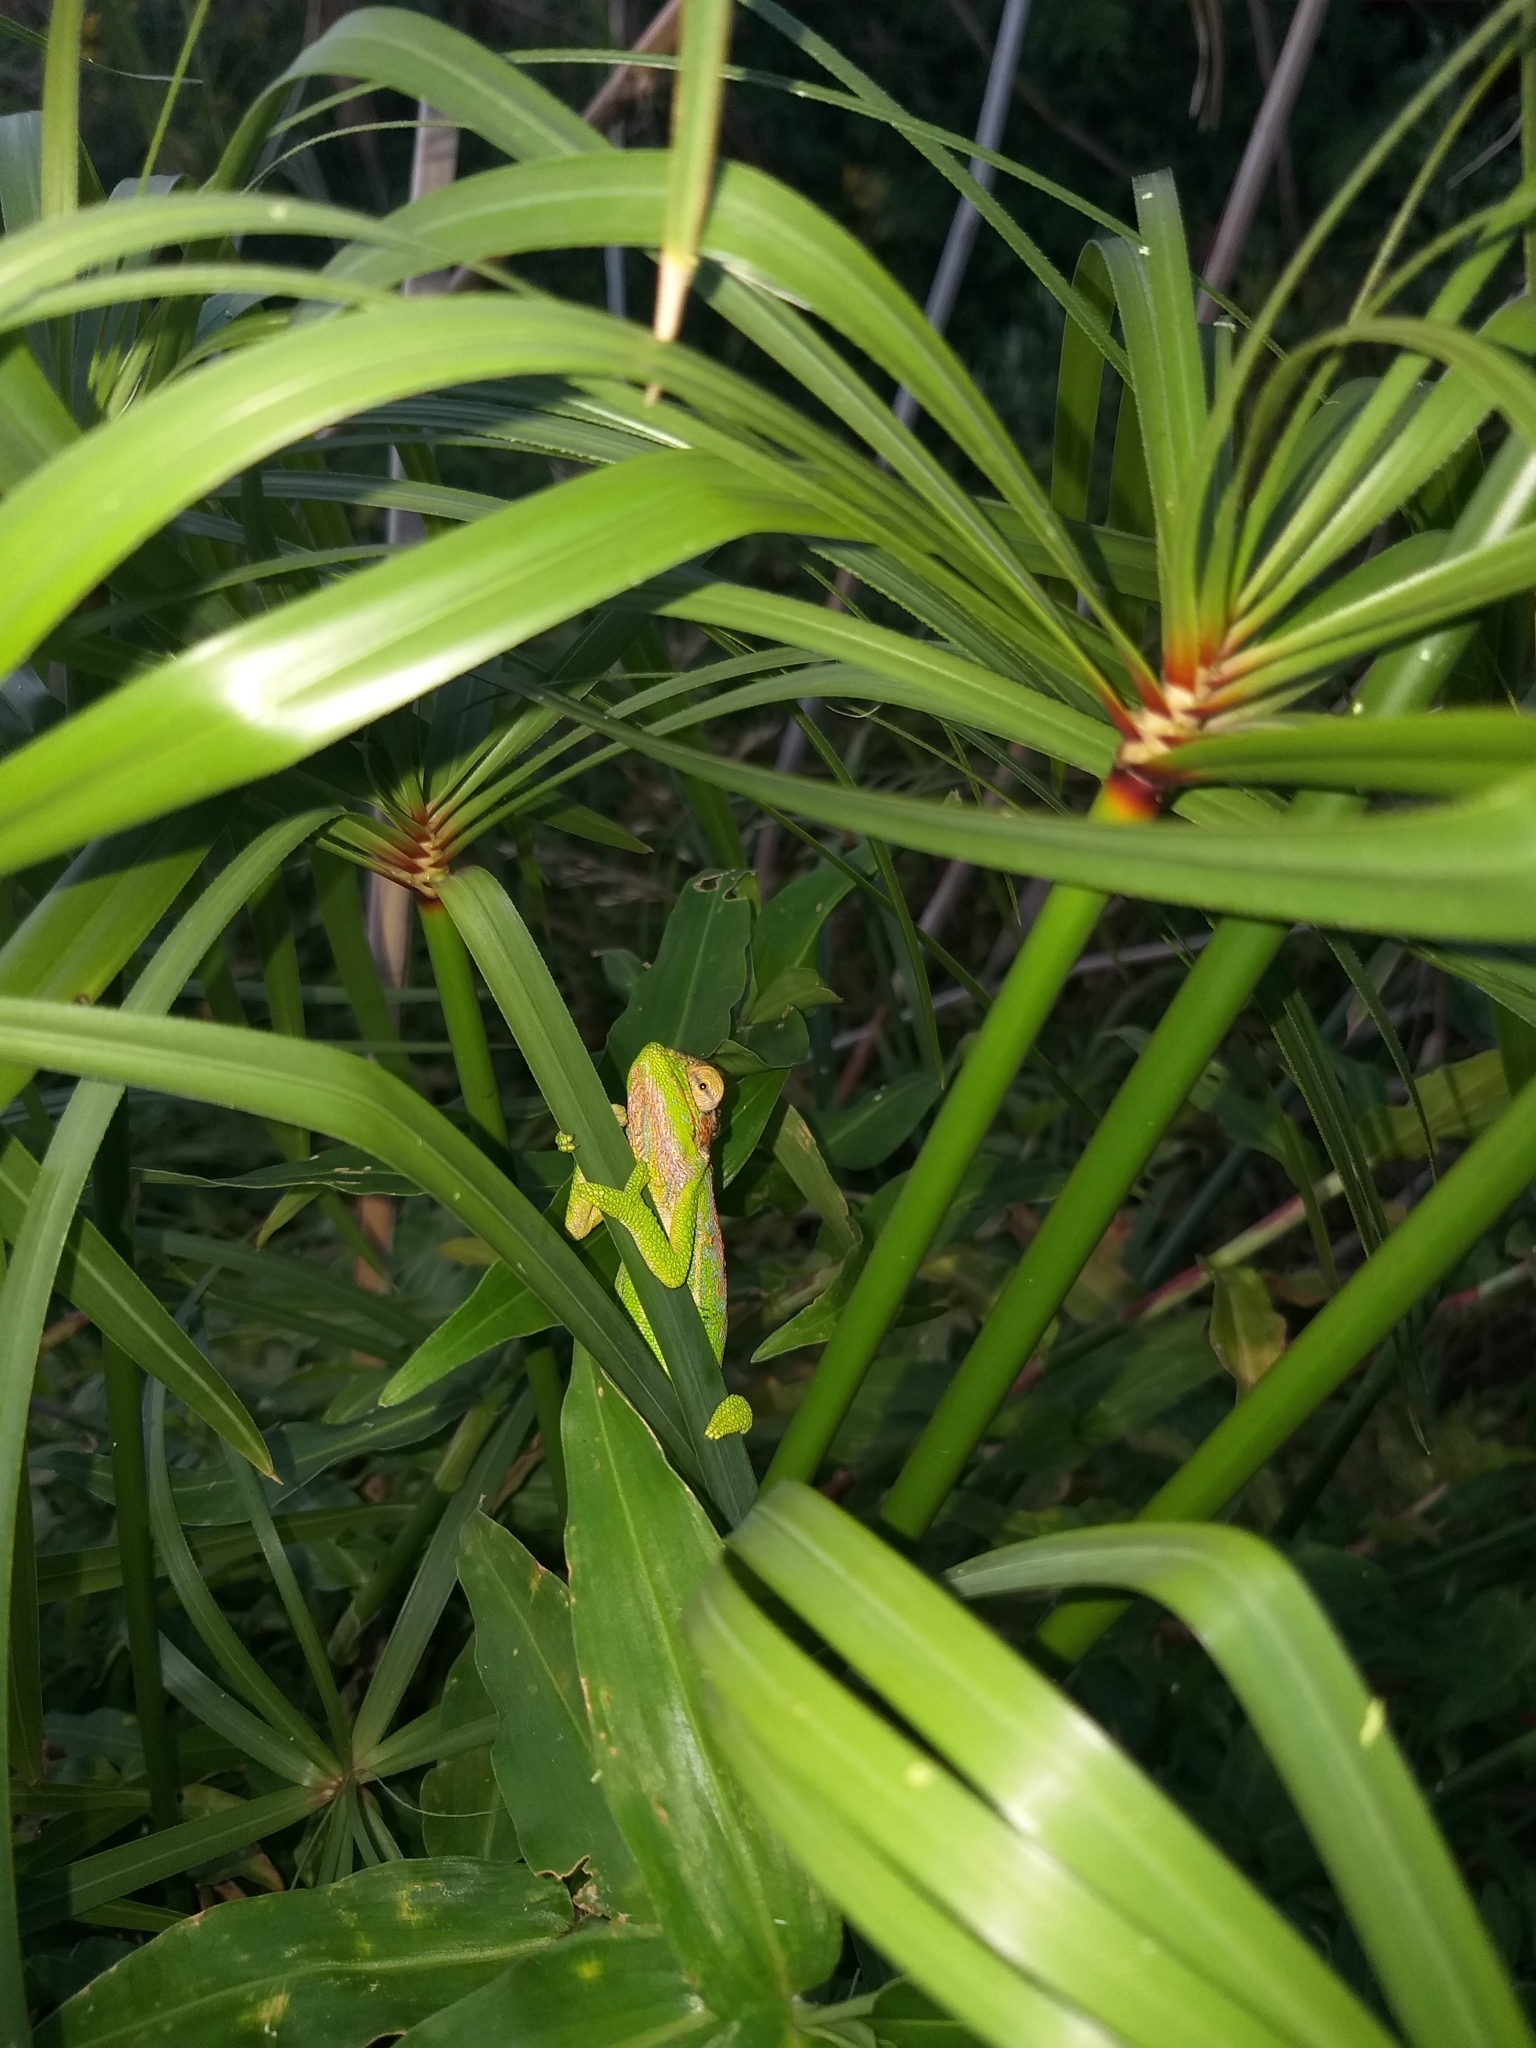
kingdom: Animalia
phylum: Chordata
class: Squamata
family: Chamaeleonidae
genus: Bradypodion
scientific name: Bradypodion pumilum
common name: Cape dwarf chameleon
